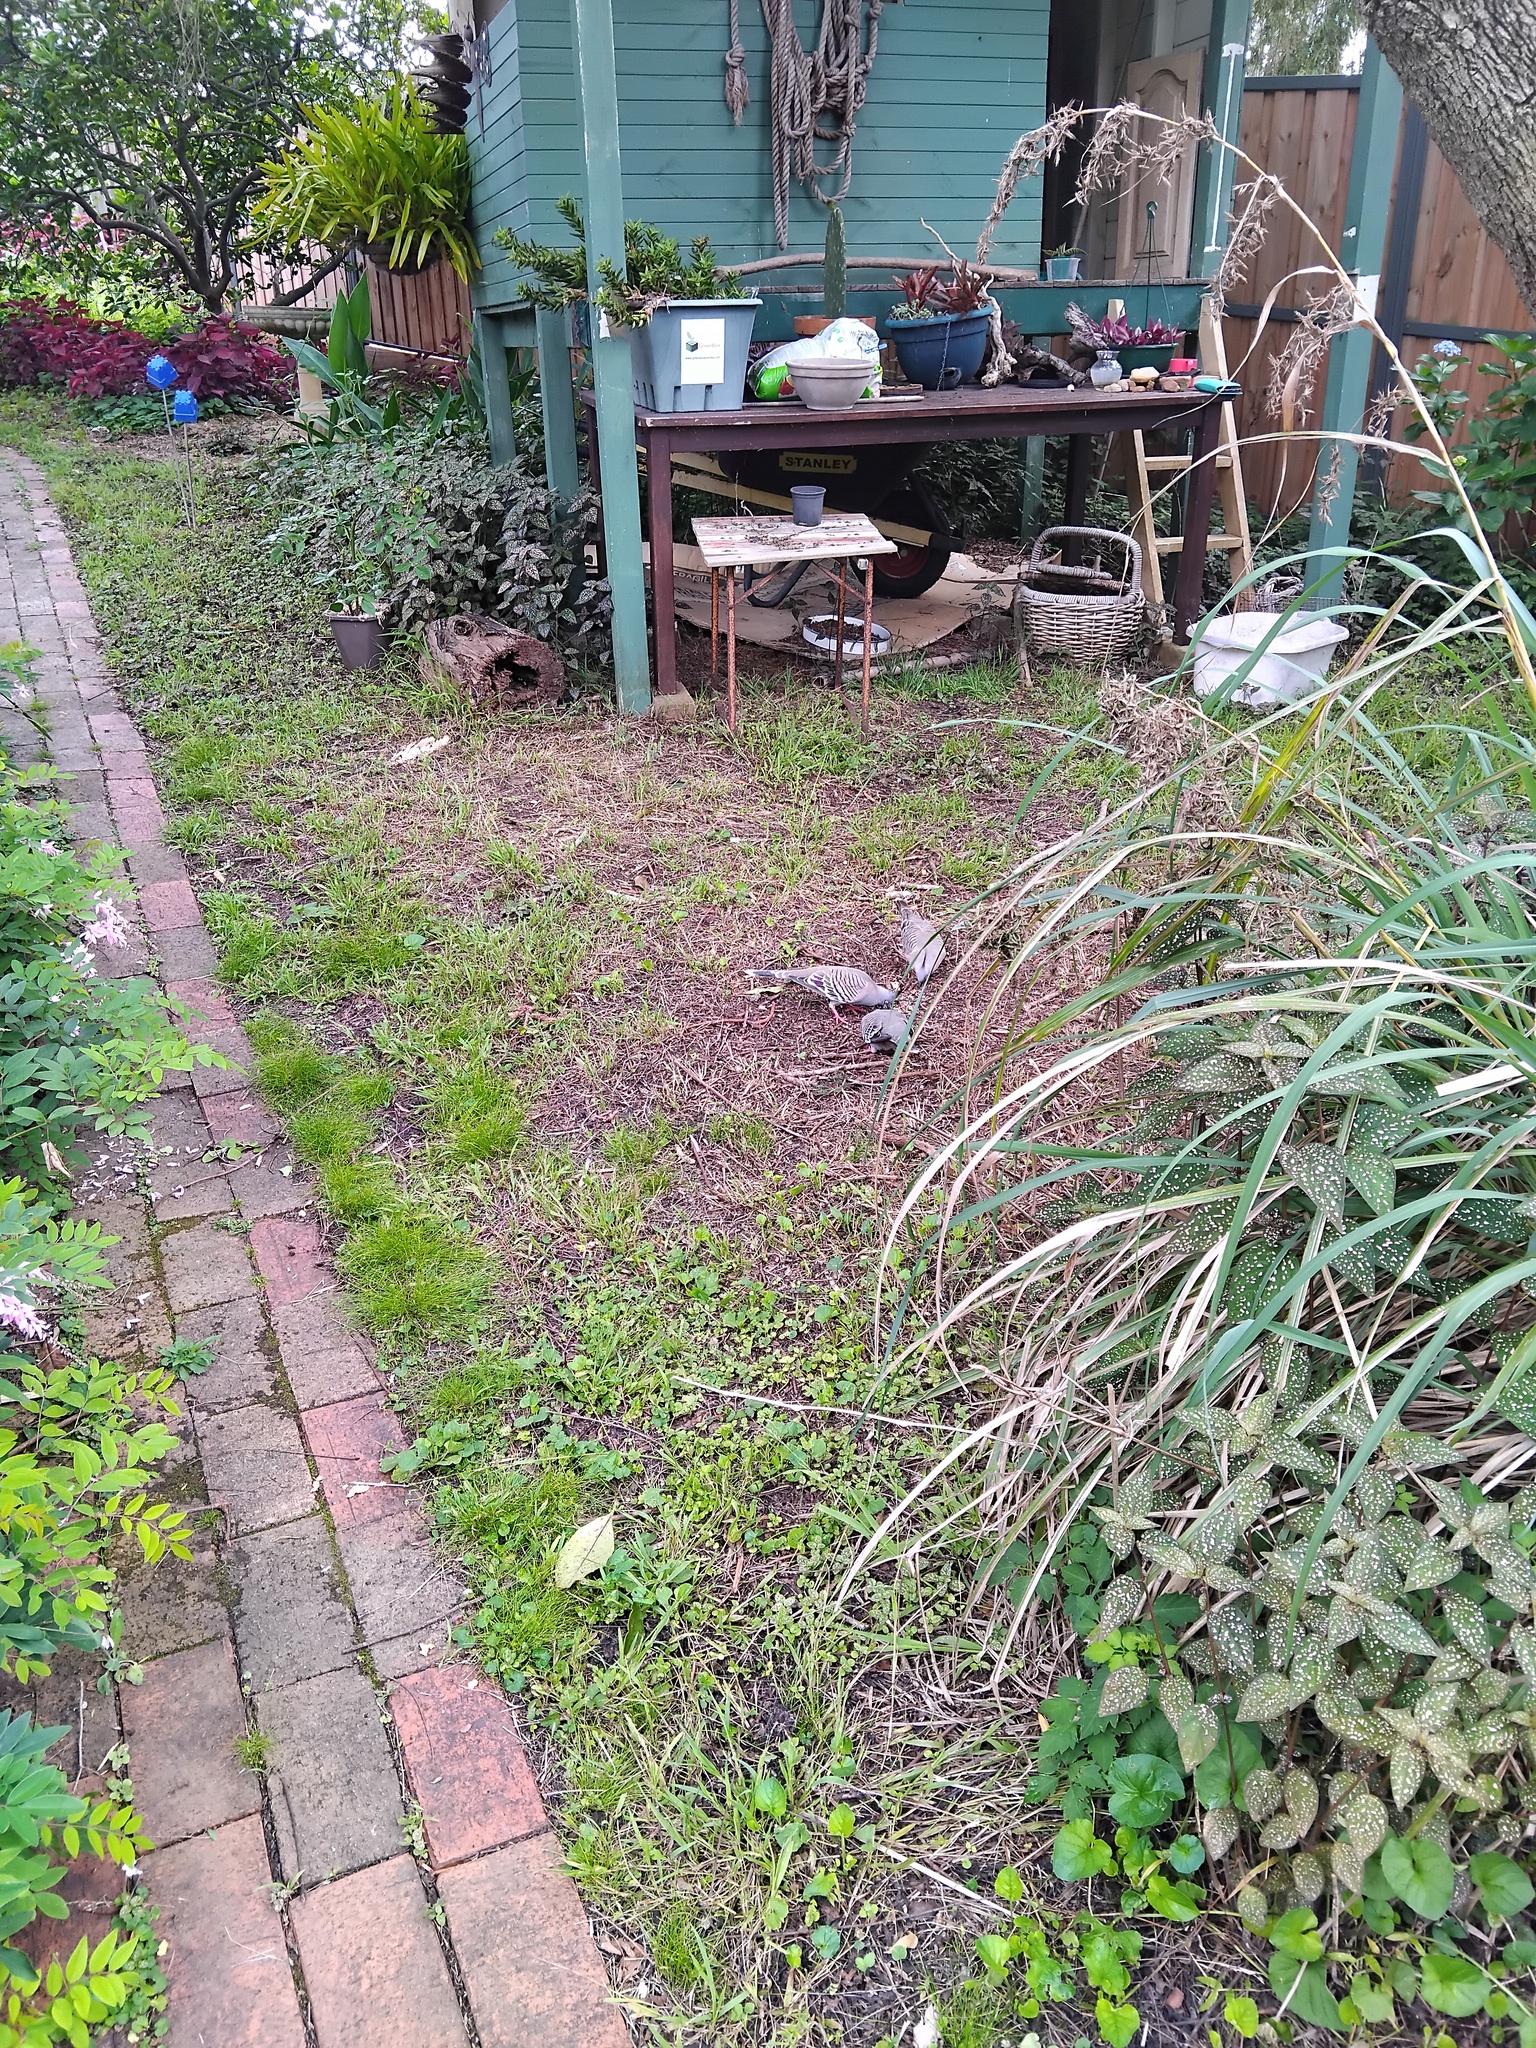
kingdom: Animalia
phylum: Chordata
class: Aves
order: Columbiformes
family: Columbidae
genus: Ocyphaps
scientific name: Ocyphaps lophotes
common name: Crested pigeon
